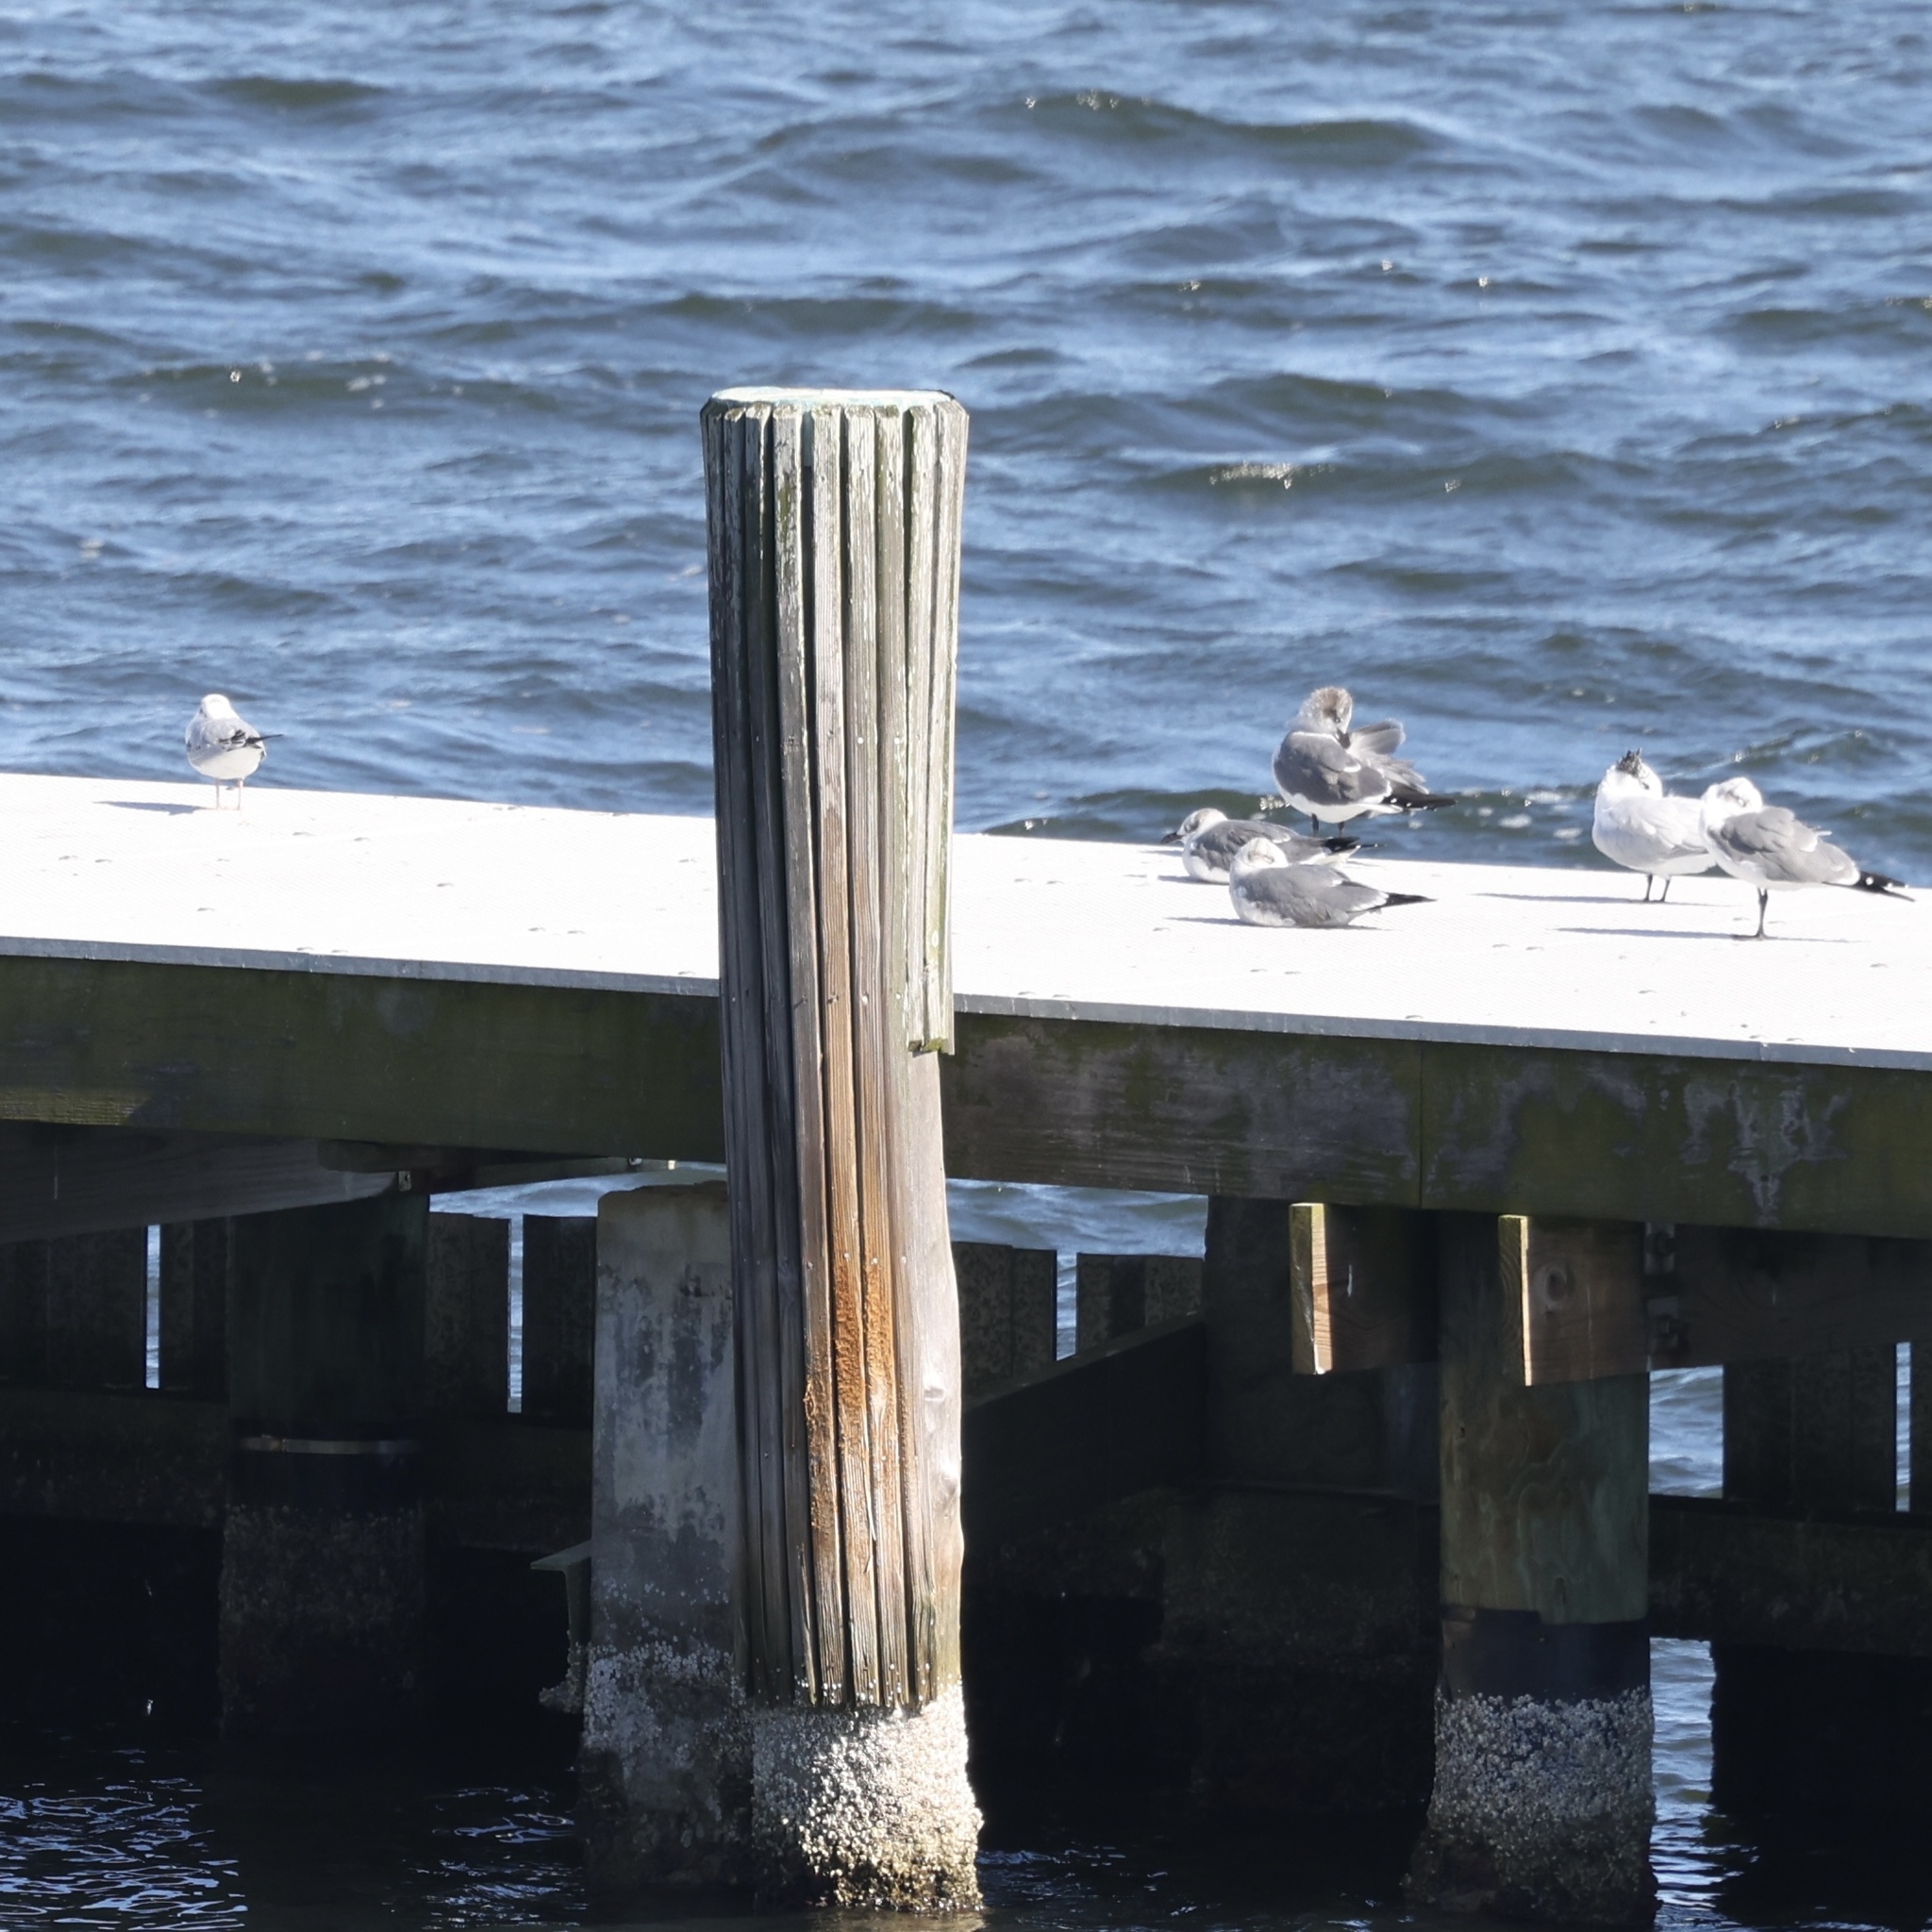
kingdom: Animalia
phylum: Chordata
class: Aves
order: Charadriiformes
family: Laridae
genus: Chroicocephalus
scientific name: Chroicocephalus philadelphia
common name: Bonaparte's gull
